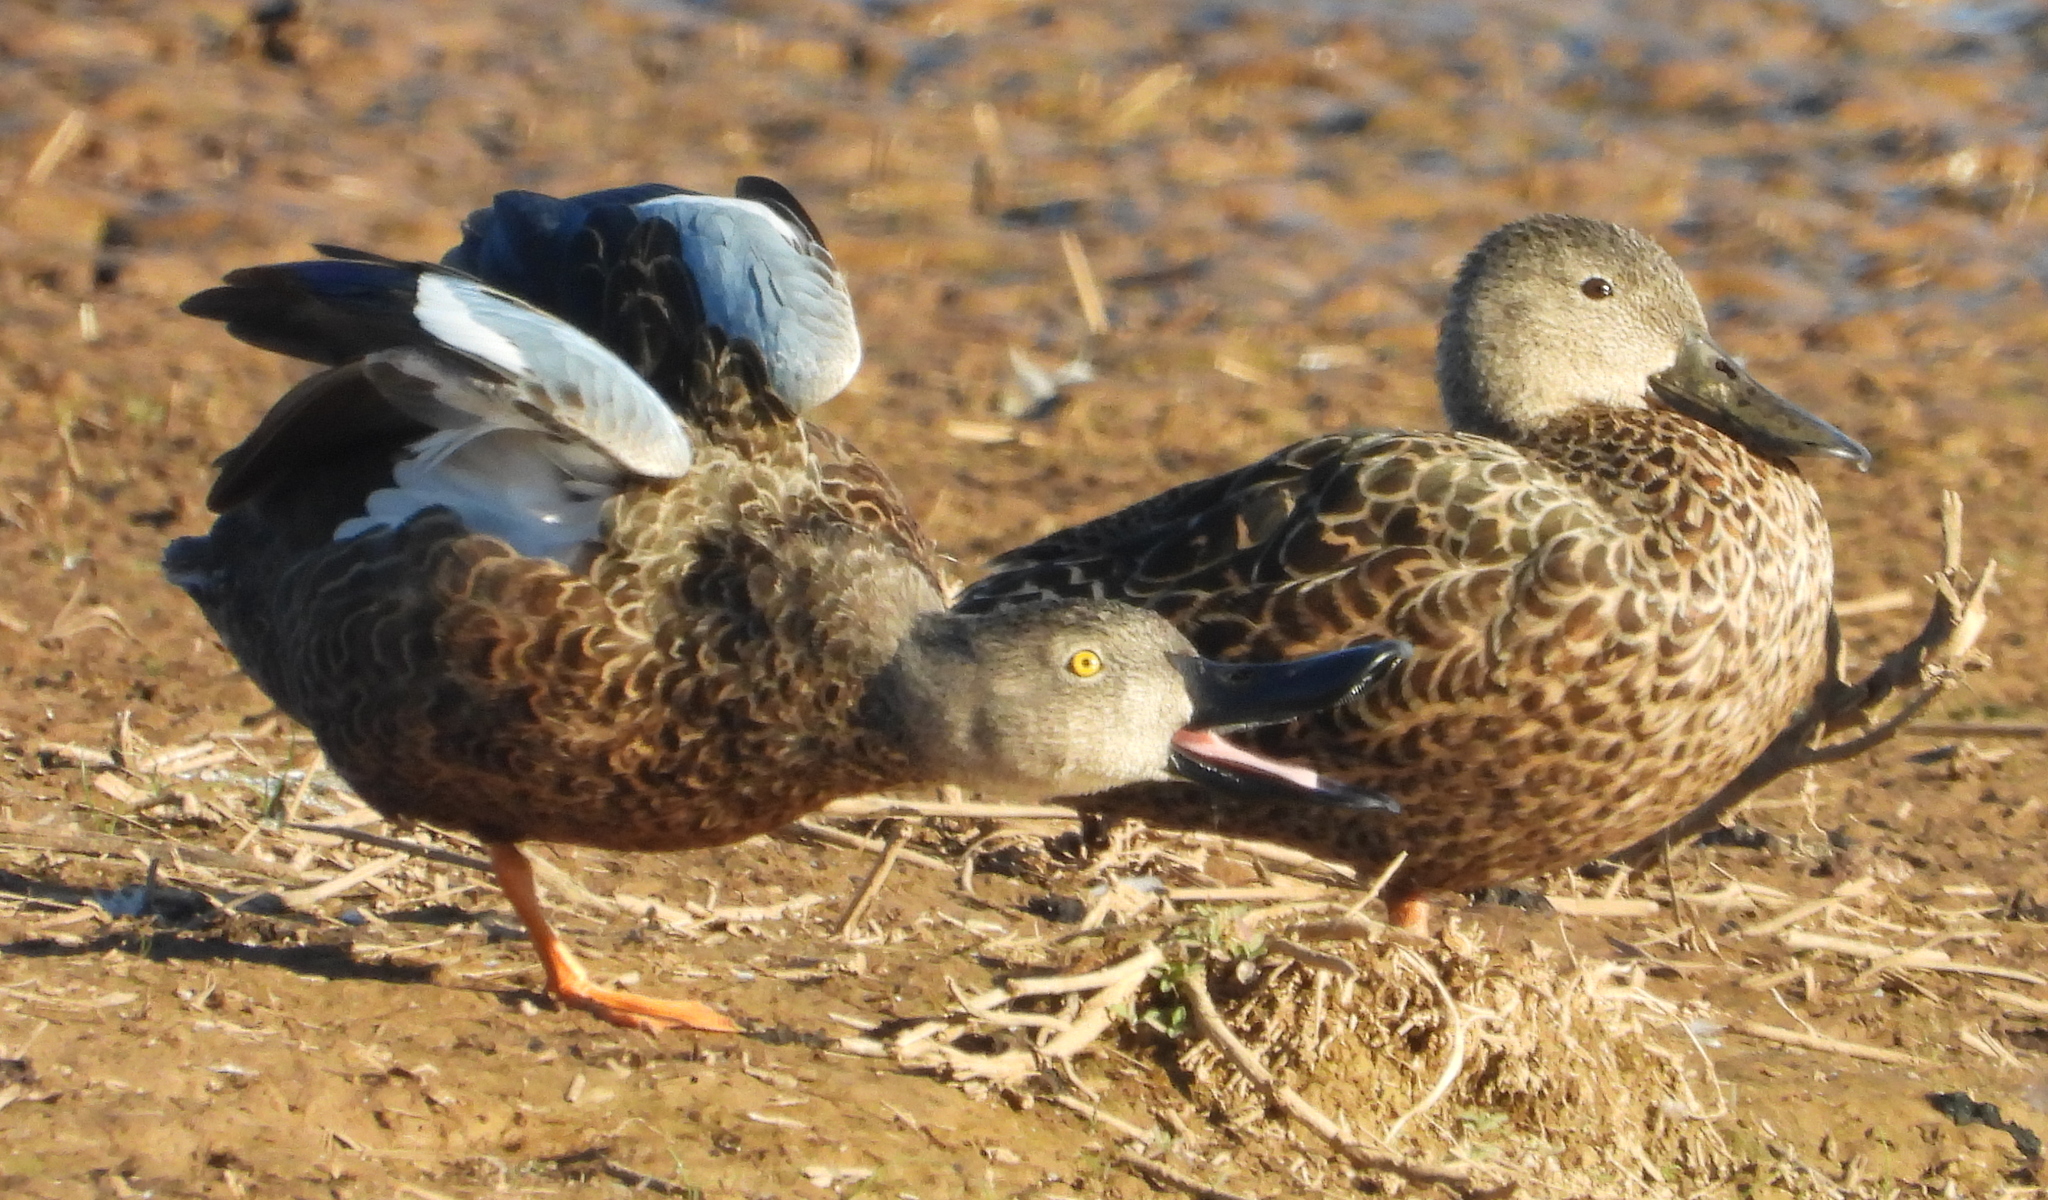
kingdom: Animalia
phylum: Chordata
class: Aves
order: Anseriformes
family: Anatidae
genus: Spatula
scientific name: Spatula smithii
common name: Cape shoveler
